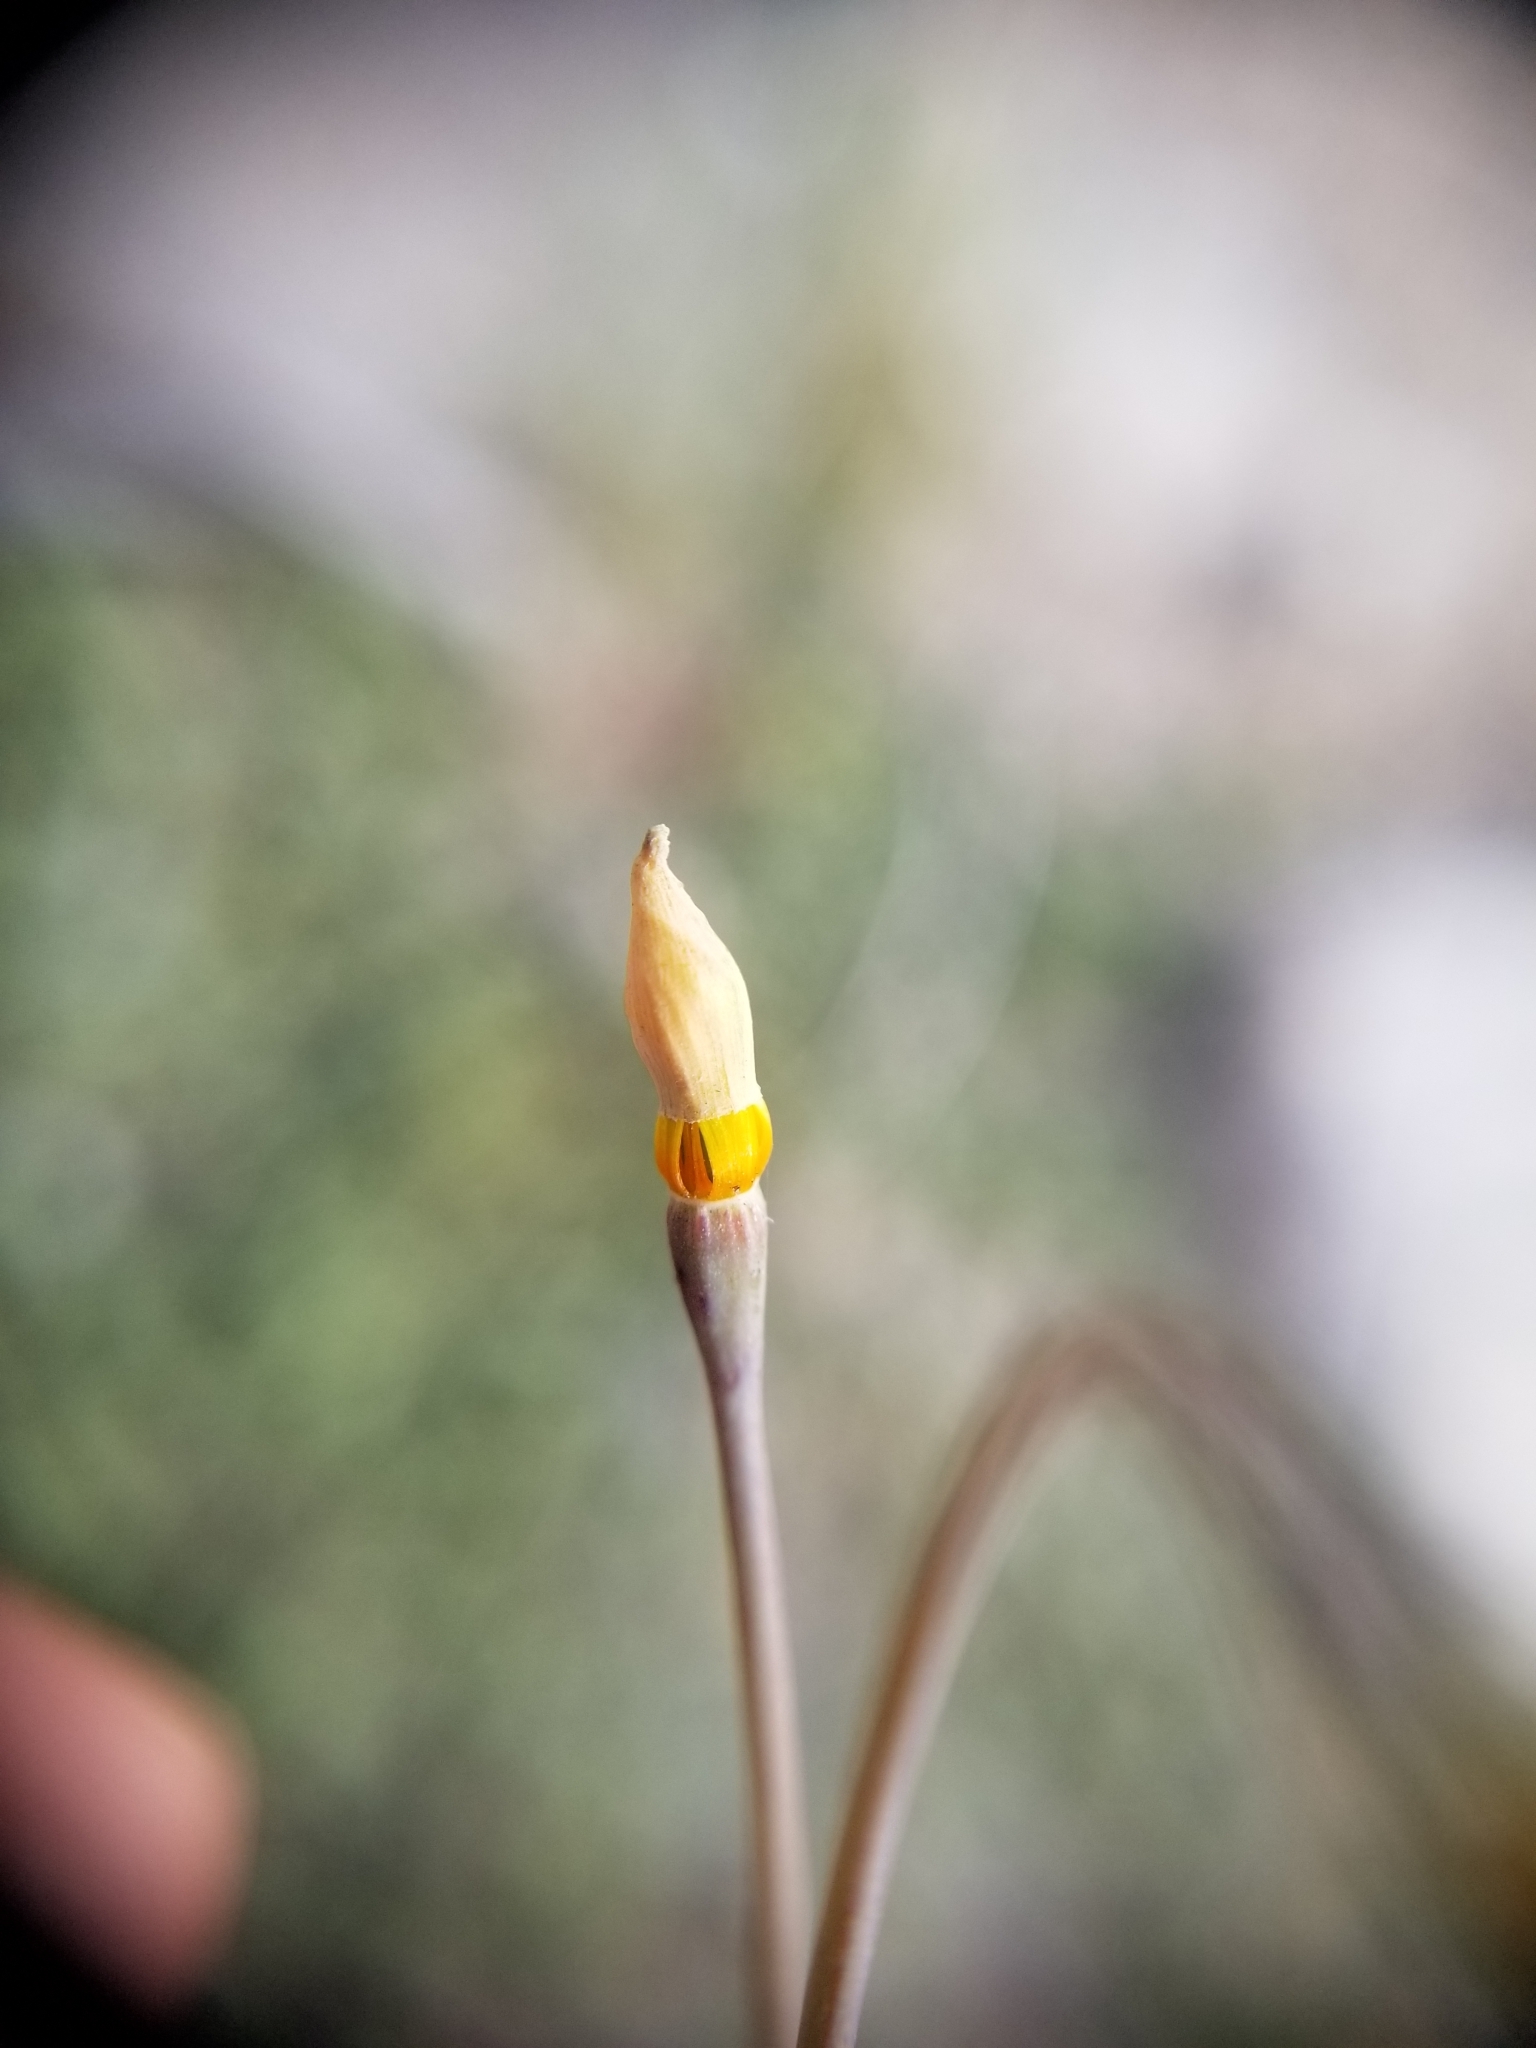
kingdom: Plantae
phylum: Tracheophyta
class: Magnoliopsida
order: Ranunculales
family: Papaveraceae
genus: Eschscholzia
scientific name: Eschscholzia minutiflora
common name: Small-flower california-poppy
